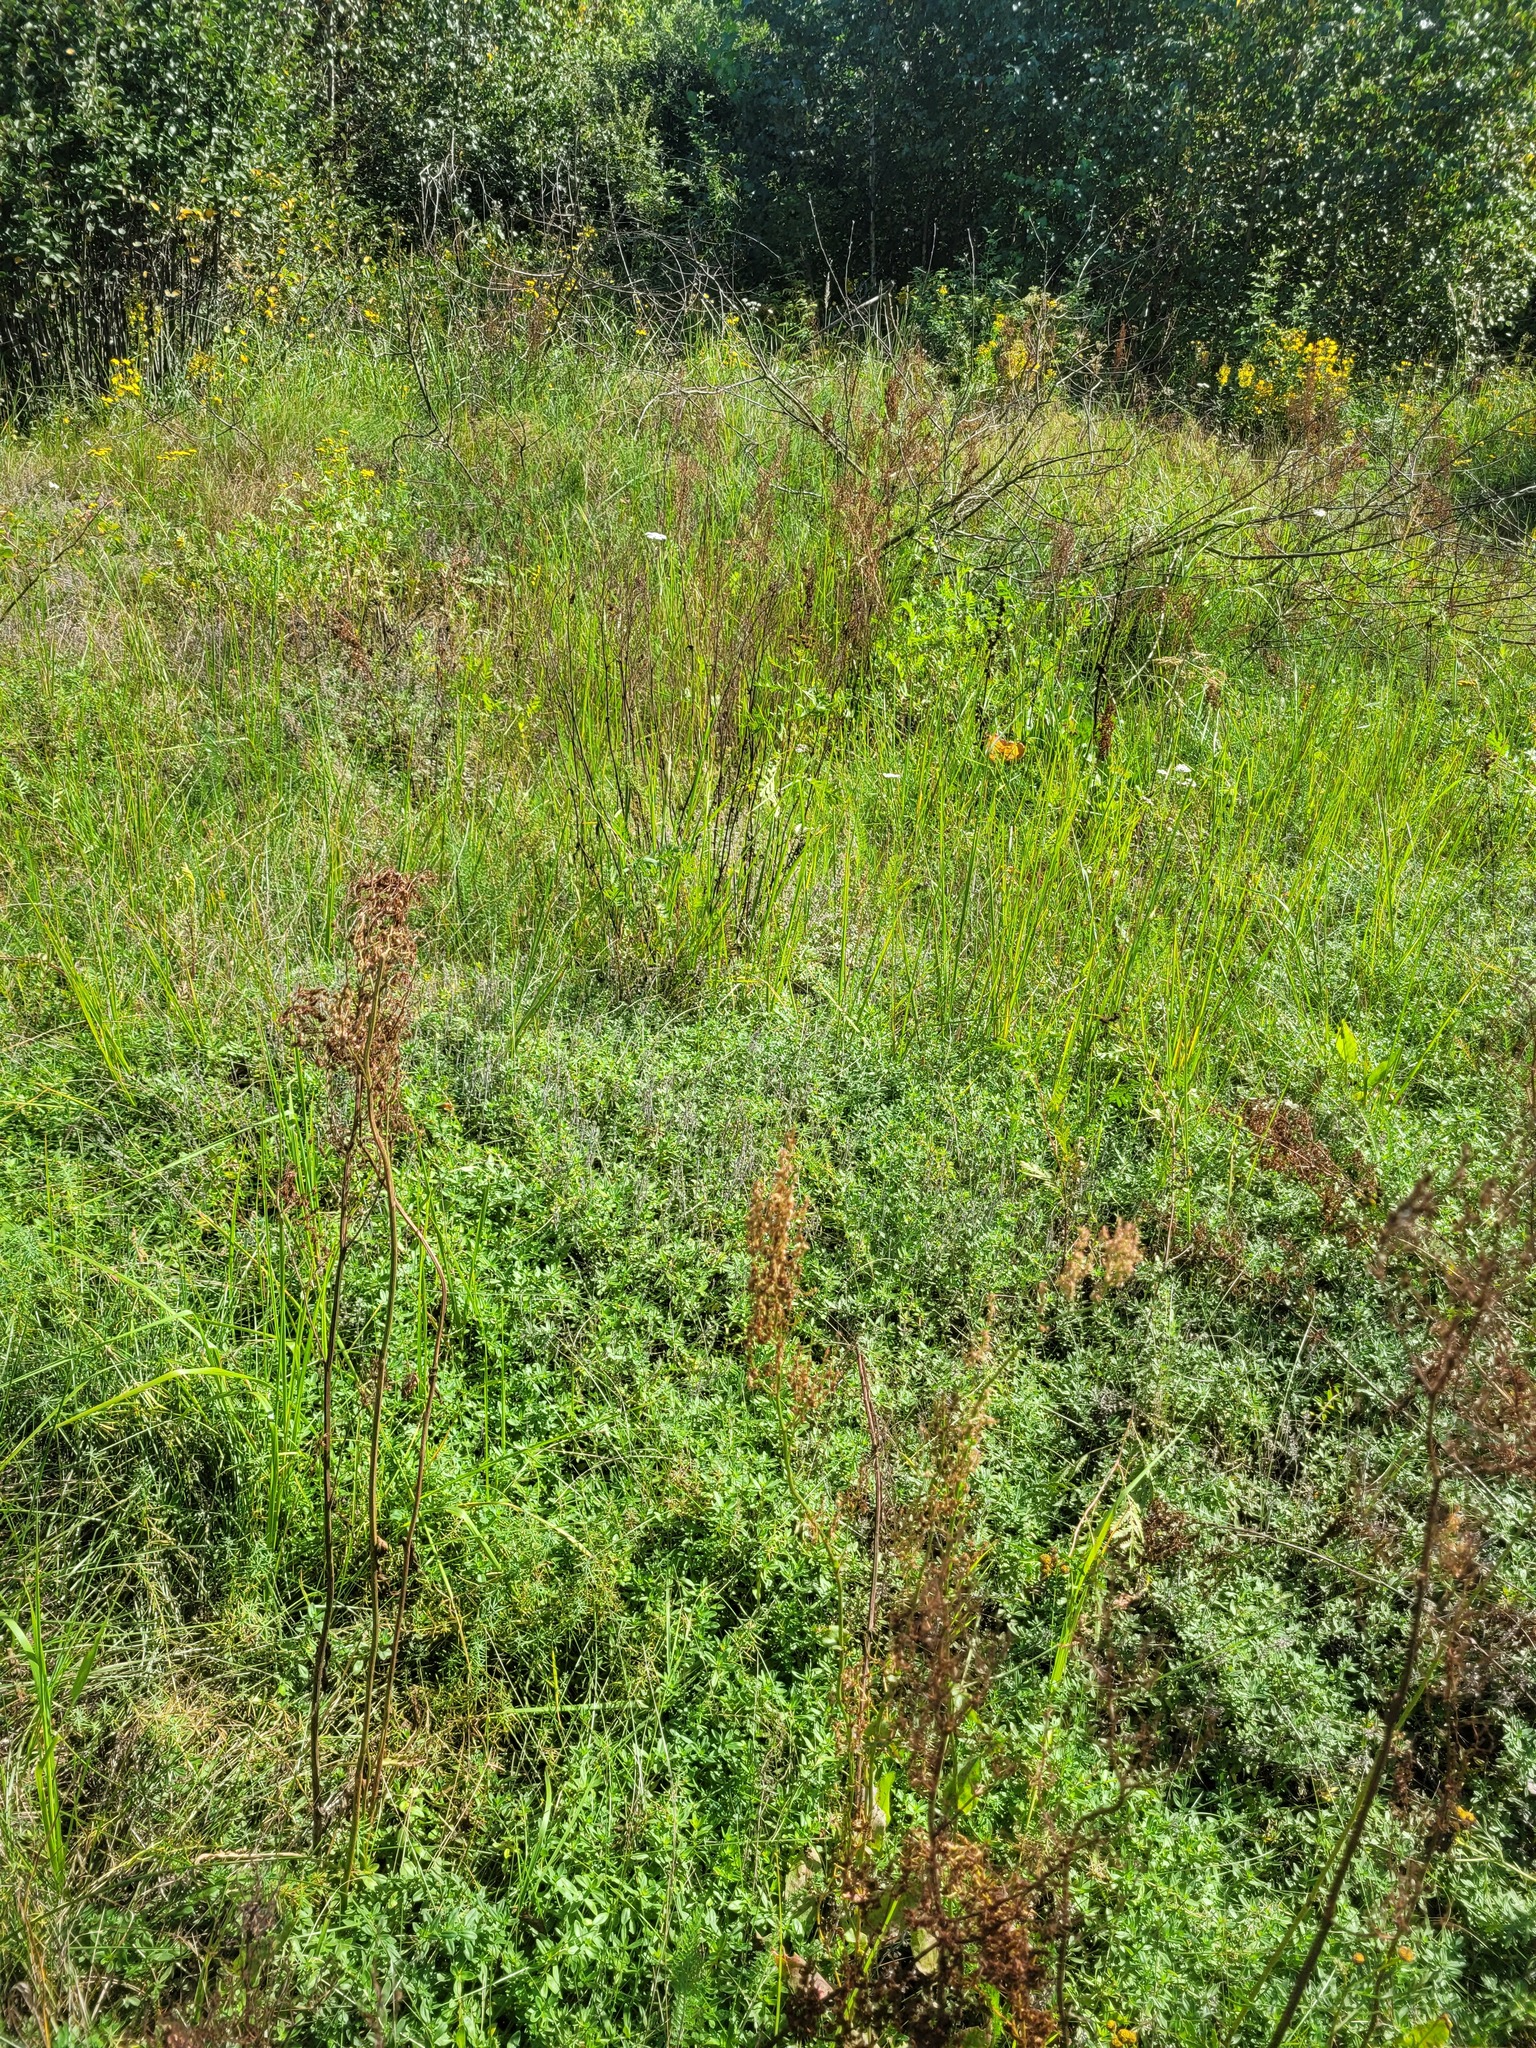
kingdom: Plantae
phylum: Tracheophyta
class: Magnoliopsida
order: Caryophyllales
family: Polygonaceae
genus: Rumex
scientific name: Rumex thyrsiflorus
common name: Garden sorrel
